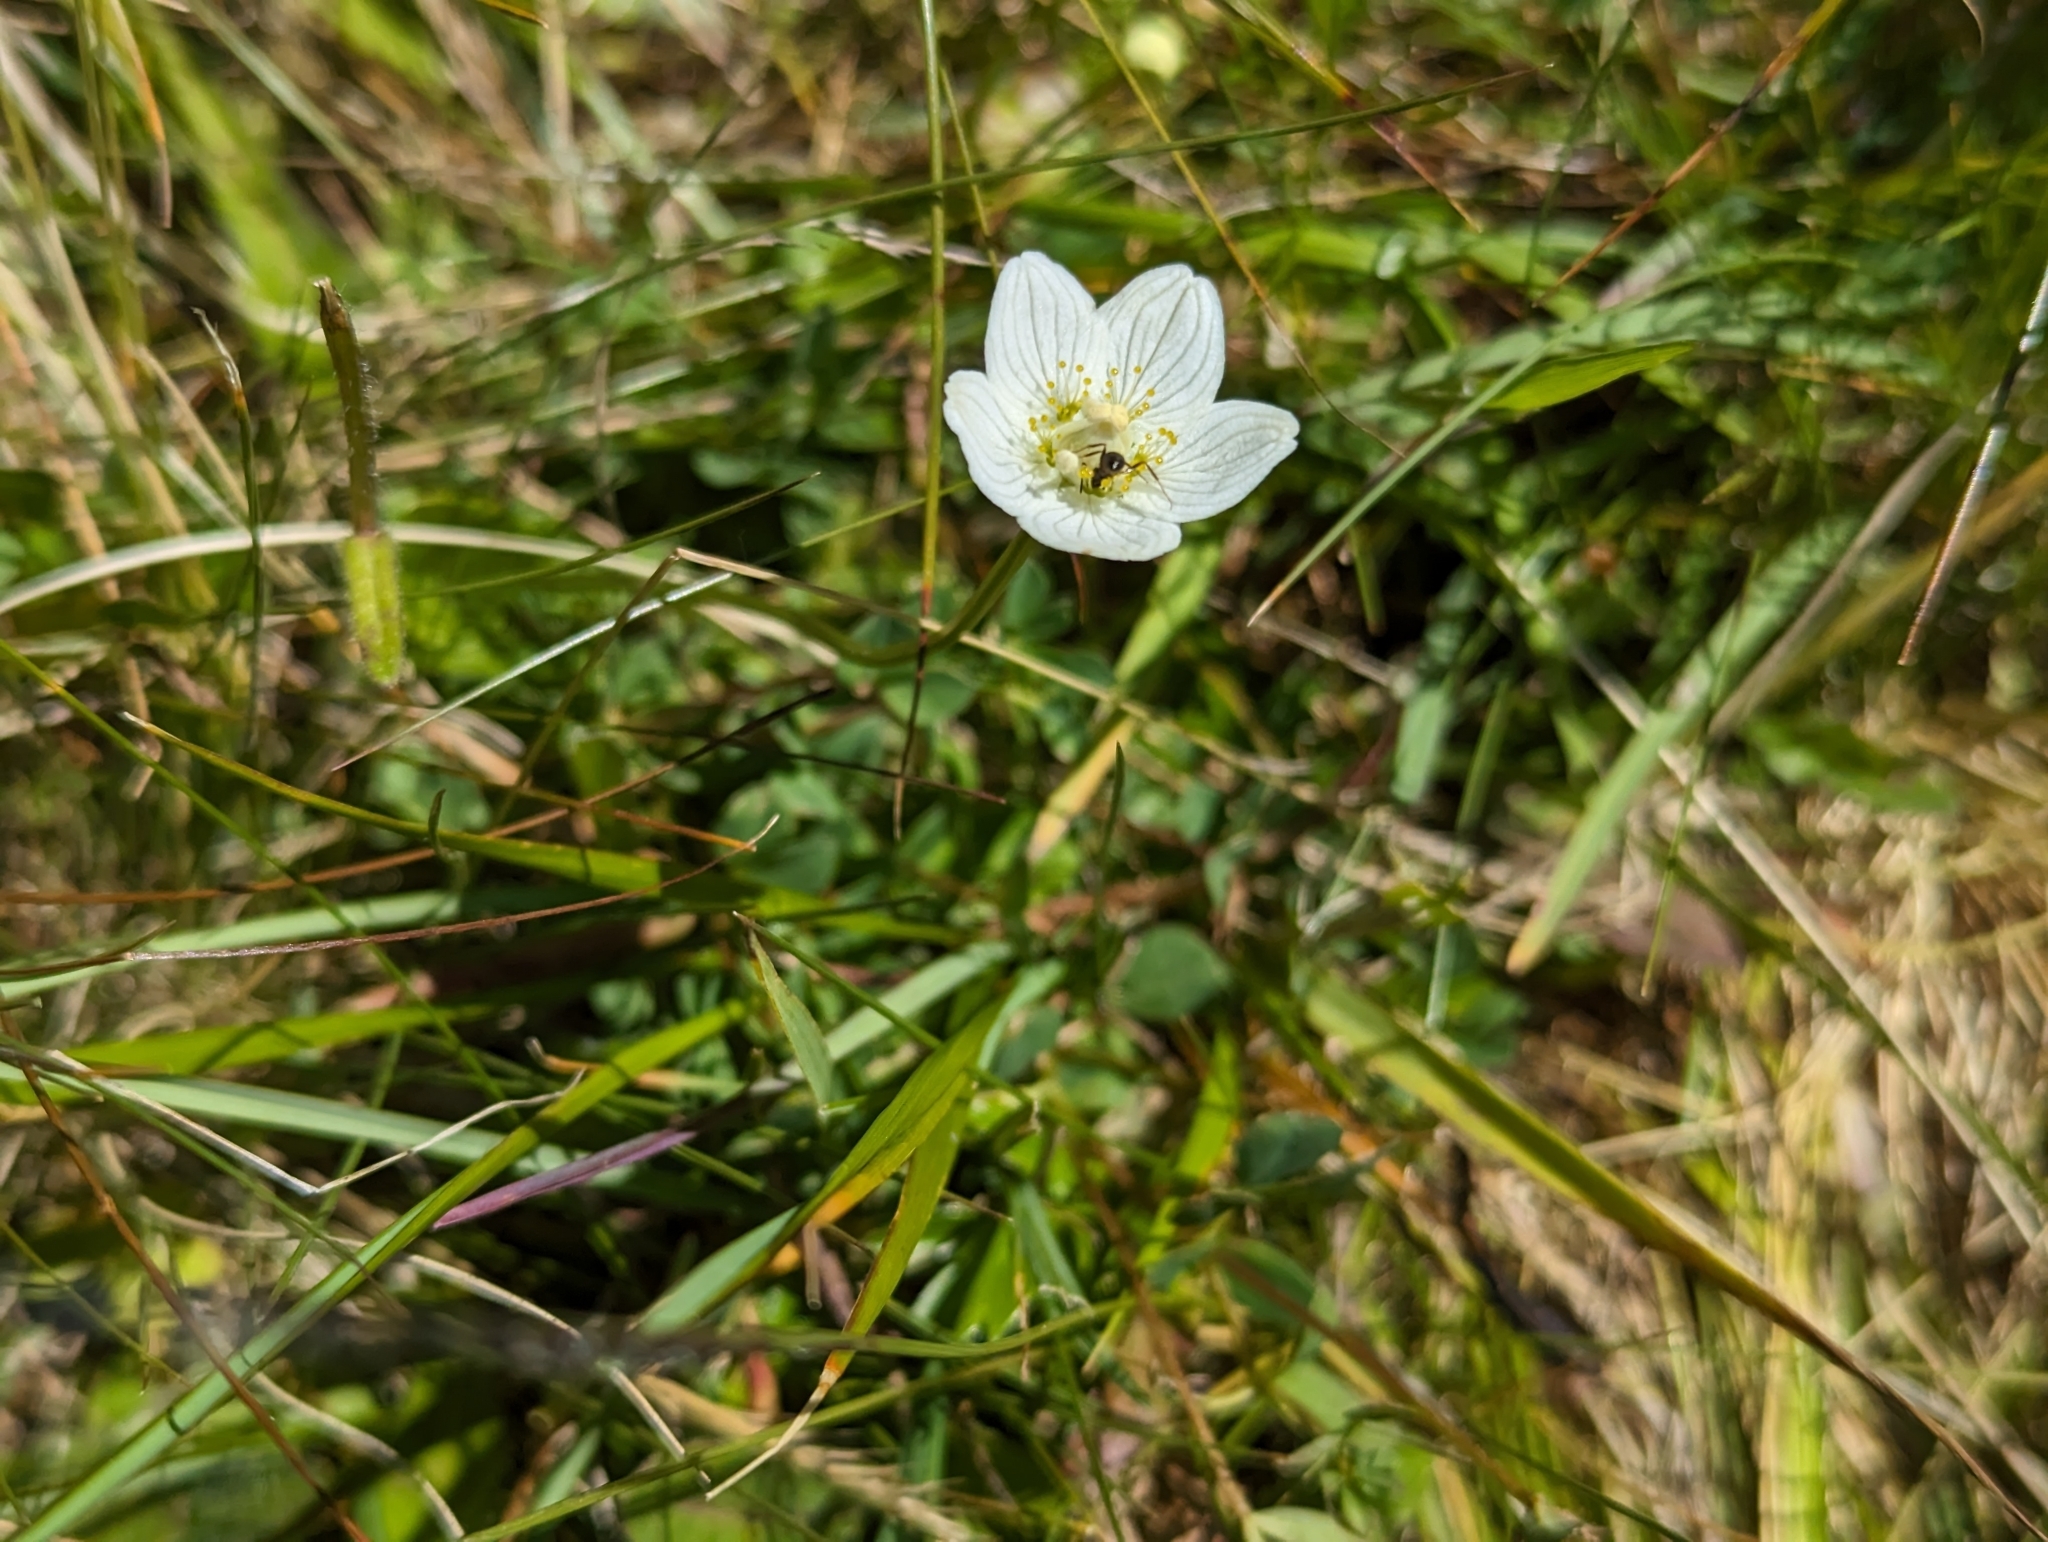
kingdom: Plantae
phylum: Tracheophyta
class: Magnoliopsida
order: Celastrales
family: Parnassiaceae
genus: Parnassia
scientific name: Parnassia palustris
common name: Grass-of-parnassus
